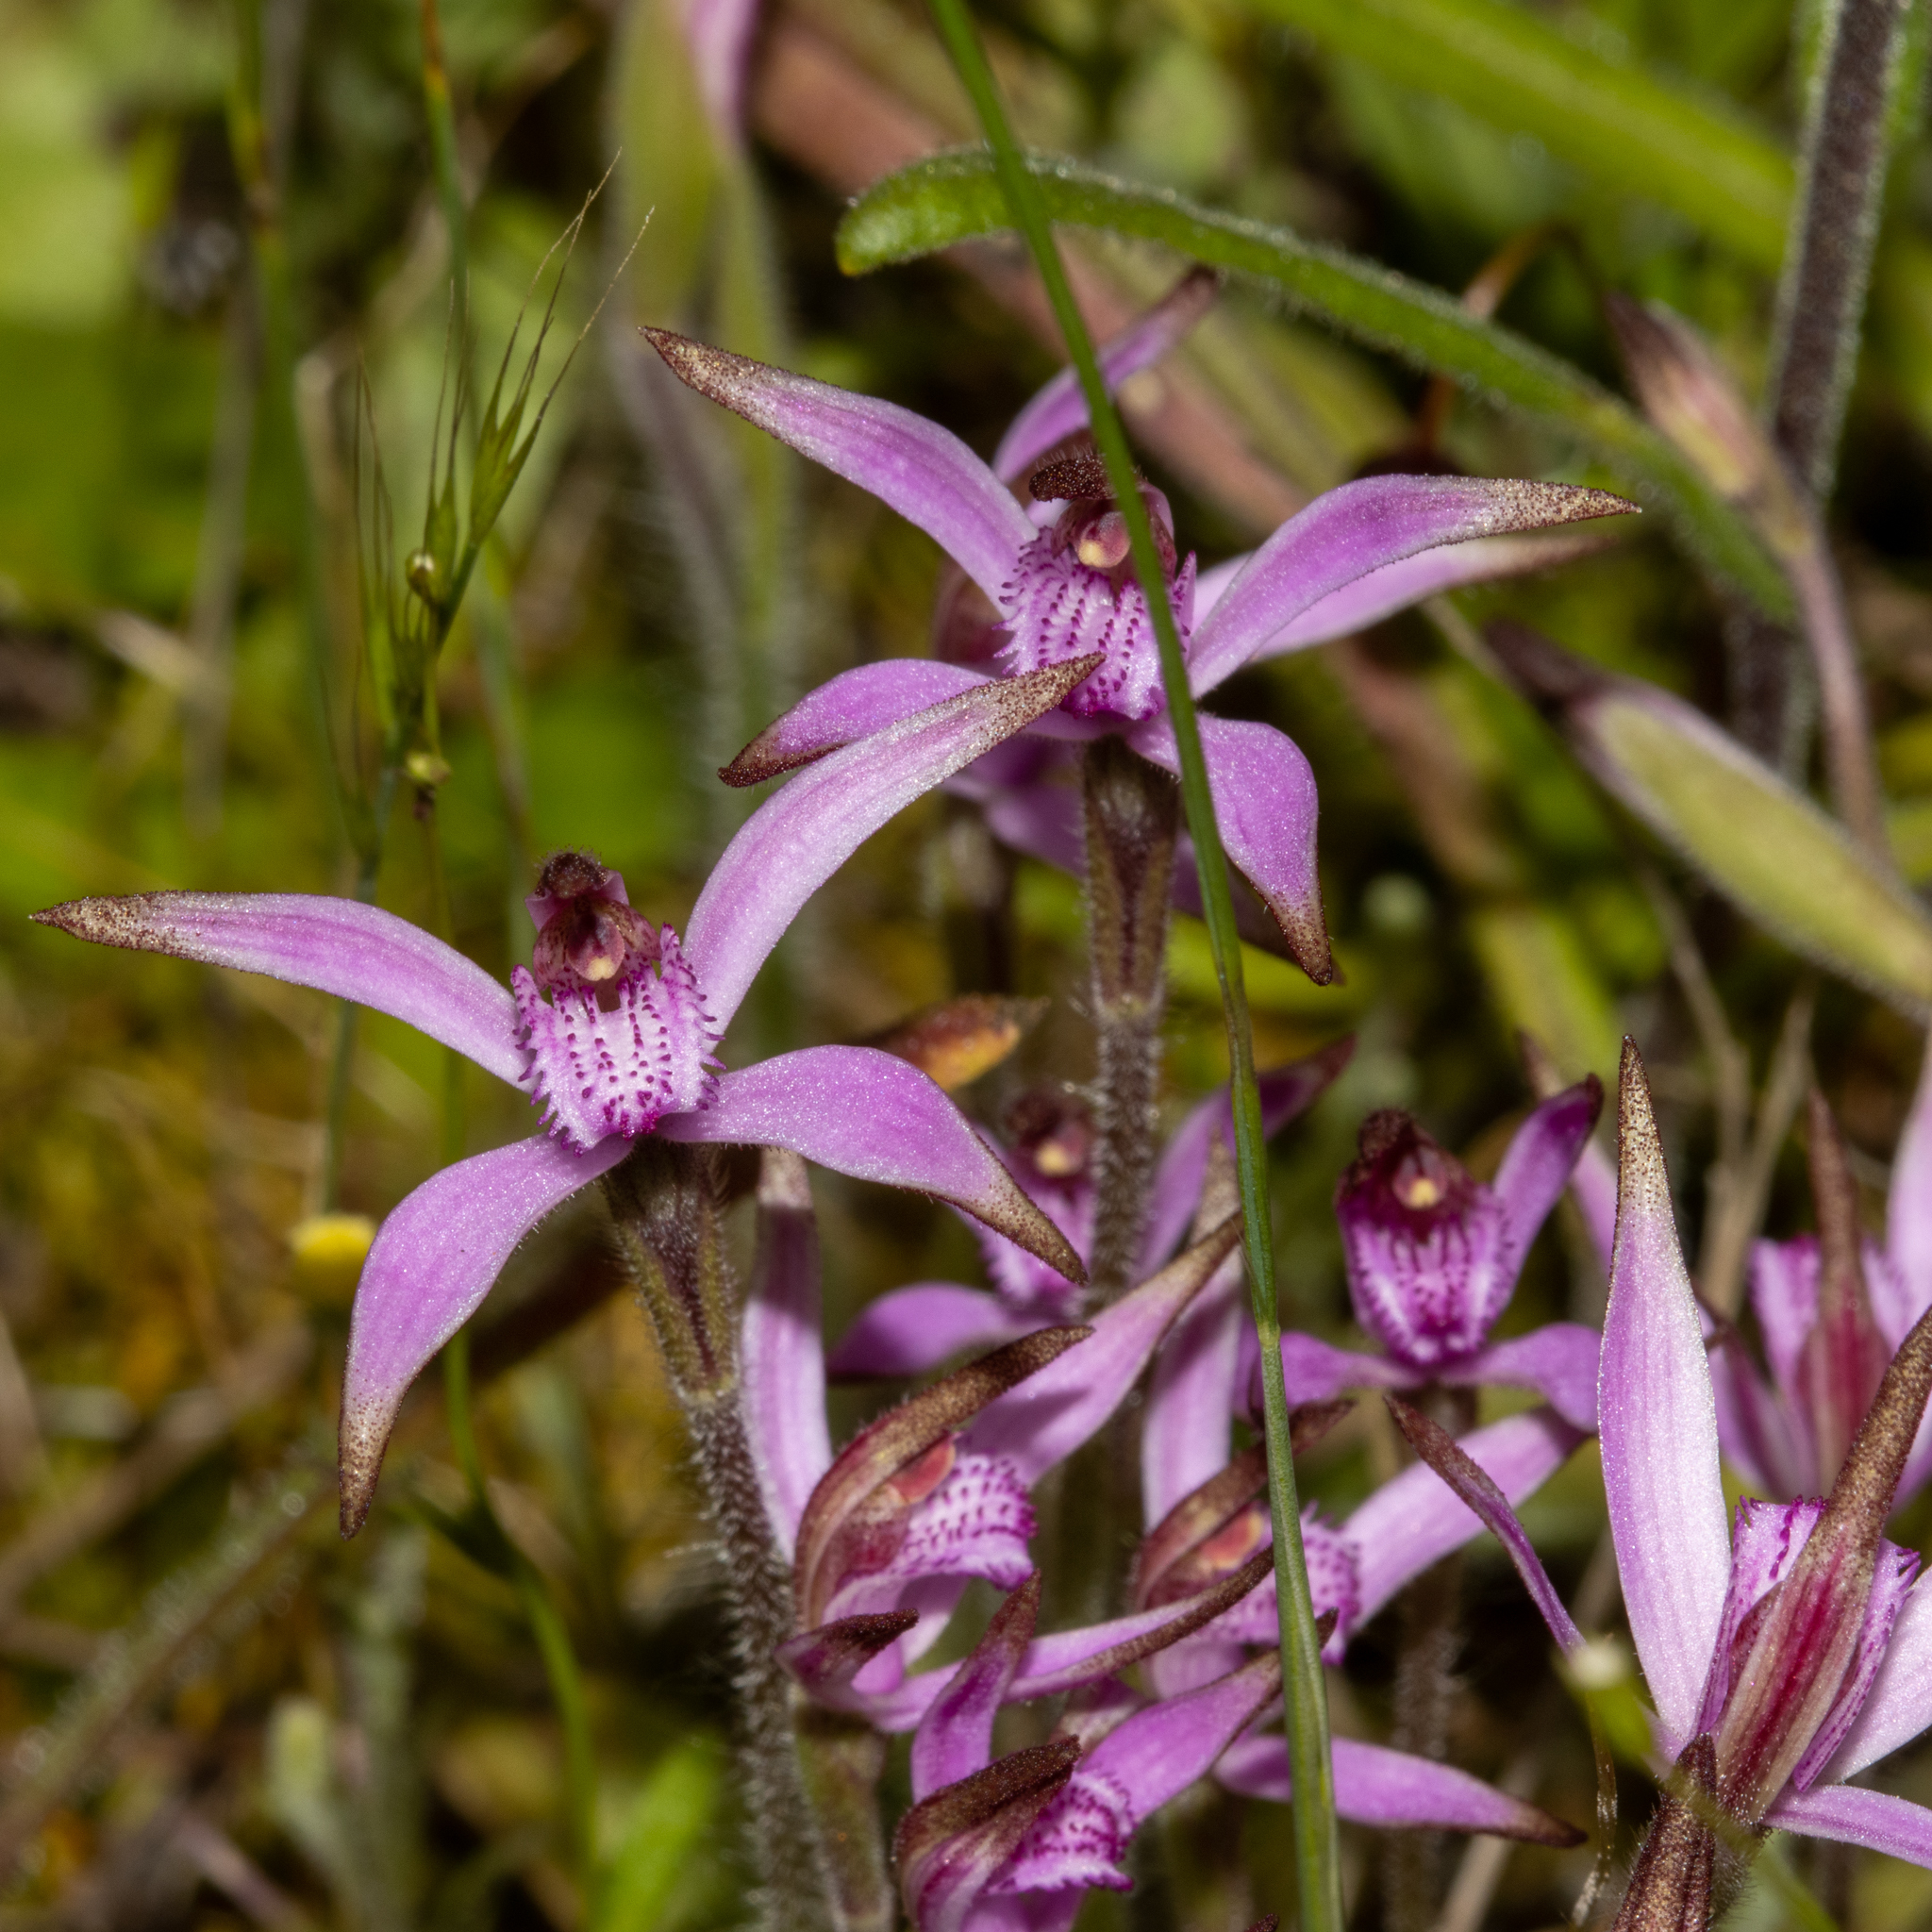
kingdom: Plantae
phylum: Tracheophyta
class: Liliopsida
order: Asparagales
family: Orchidaceae
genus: Caladenia
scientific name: Caladenia hirta
